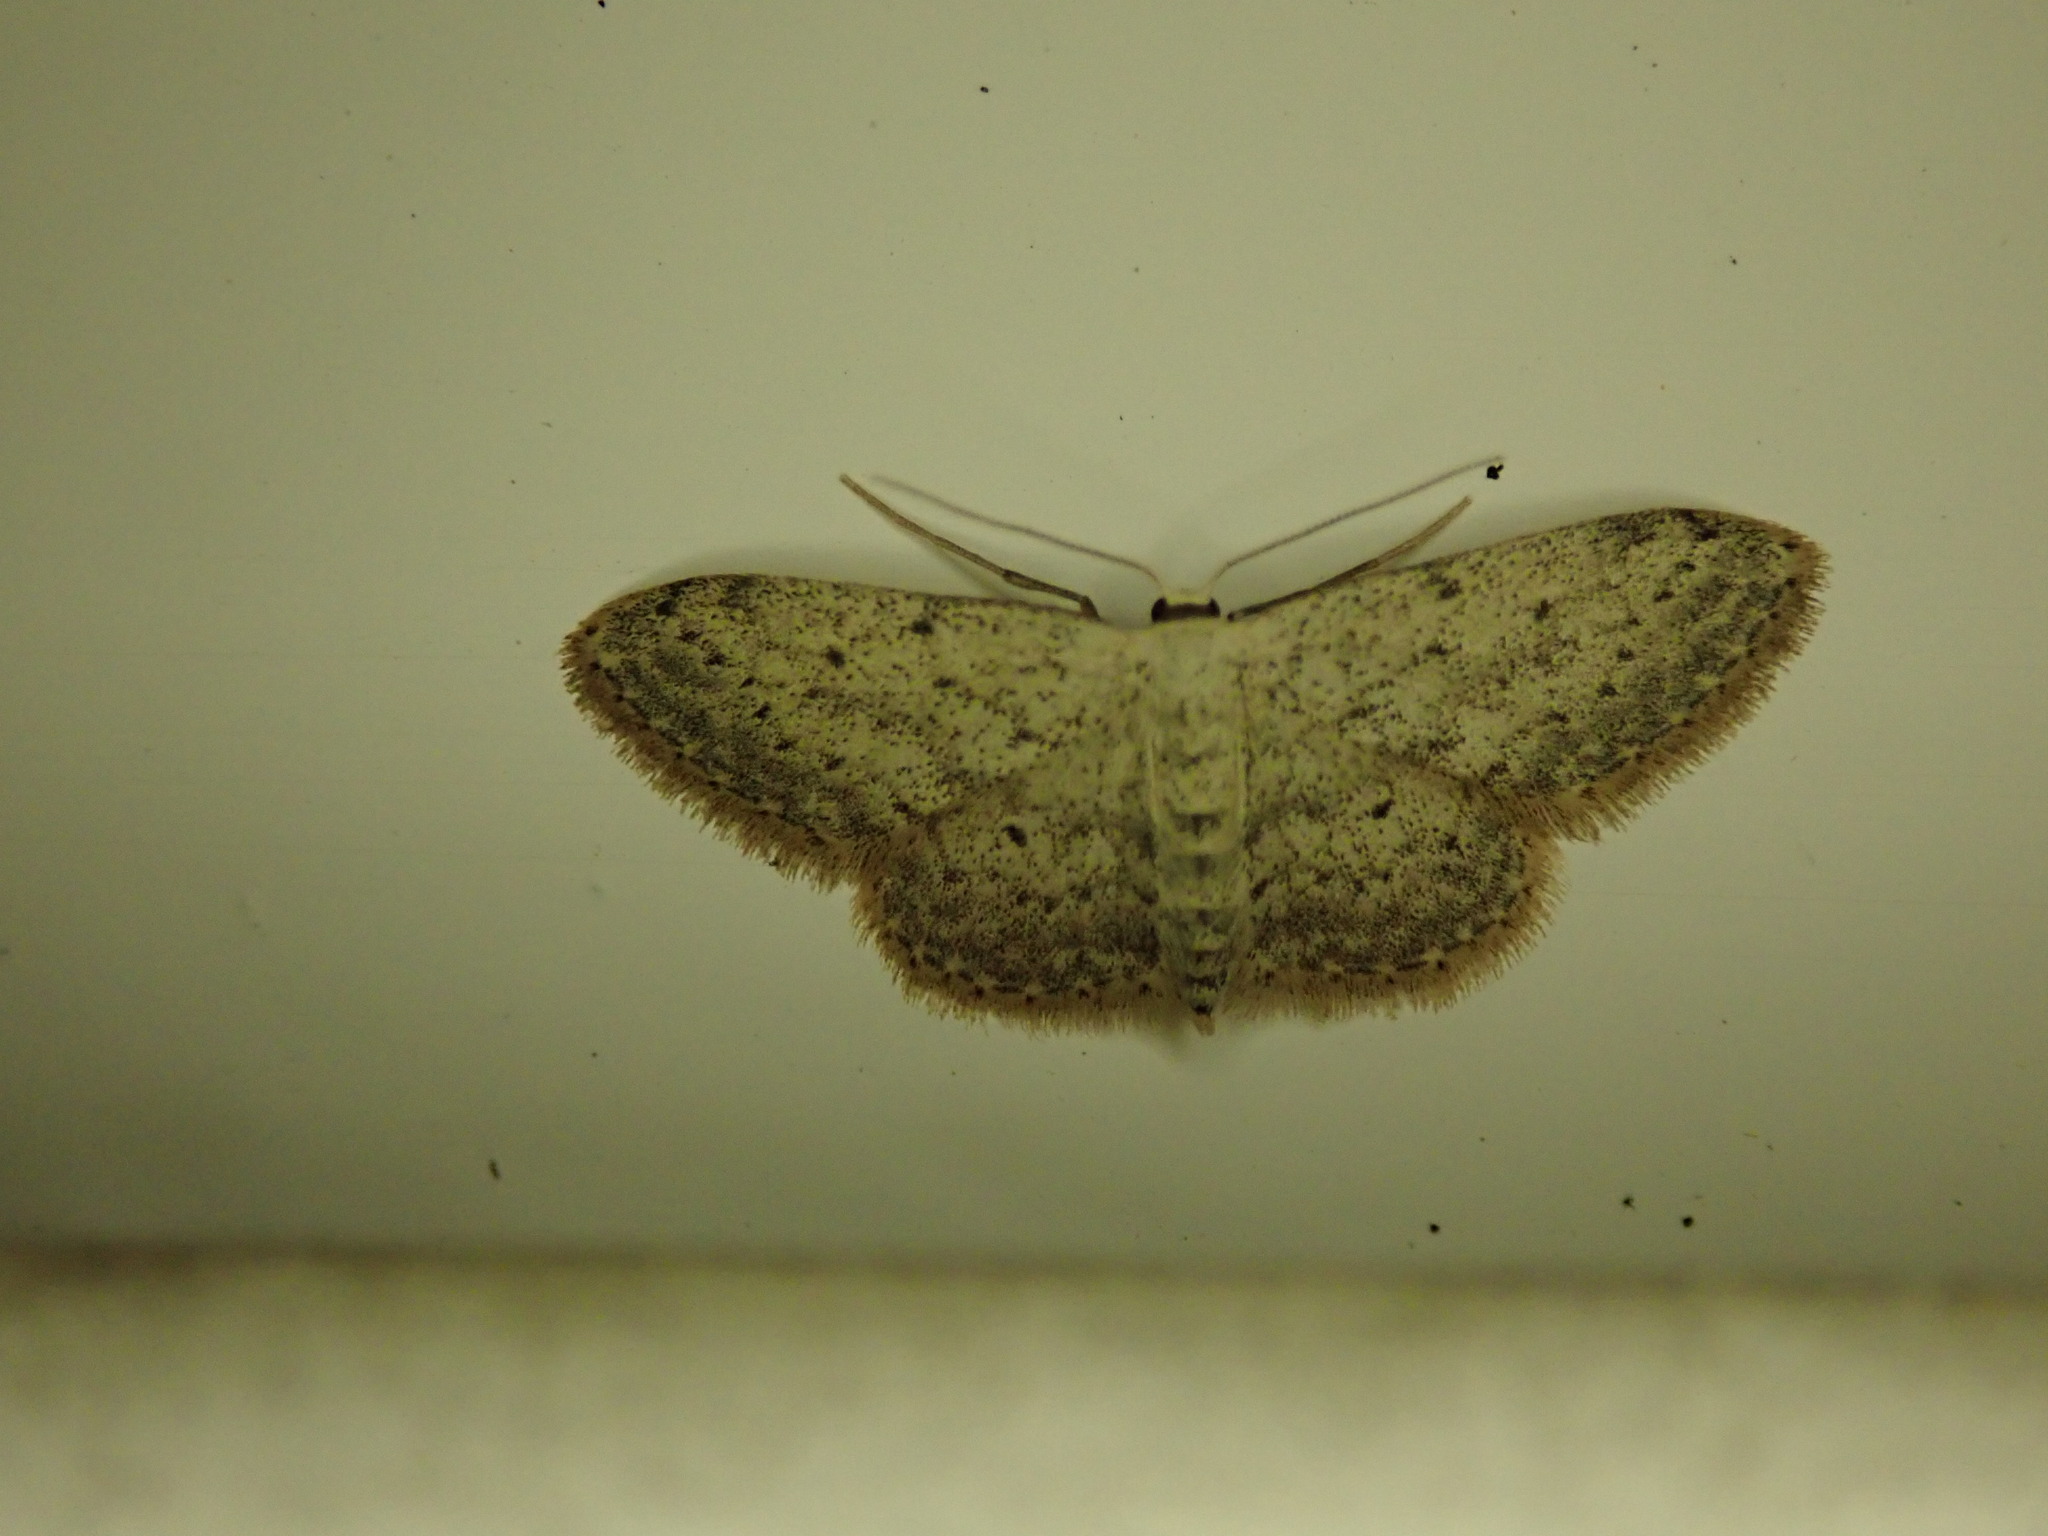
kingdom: Animalia
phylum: Arthropoda
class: Insecta
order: Lepidoptera
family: Geometridae
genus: Idaea
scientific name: Idaea seriata
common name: Small dusty wave
